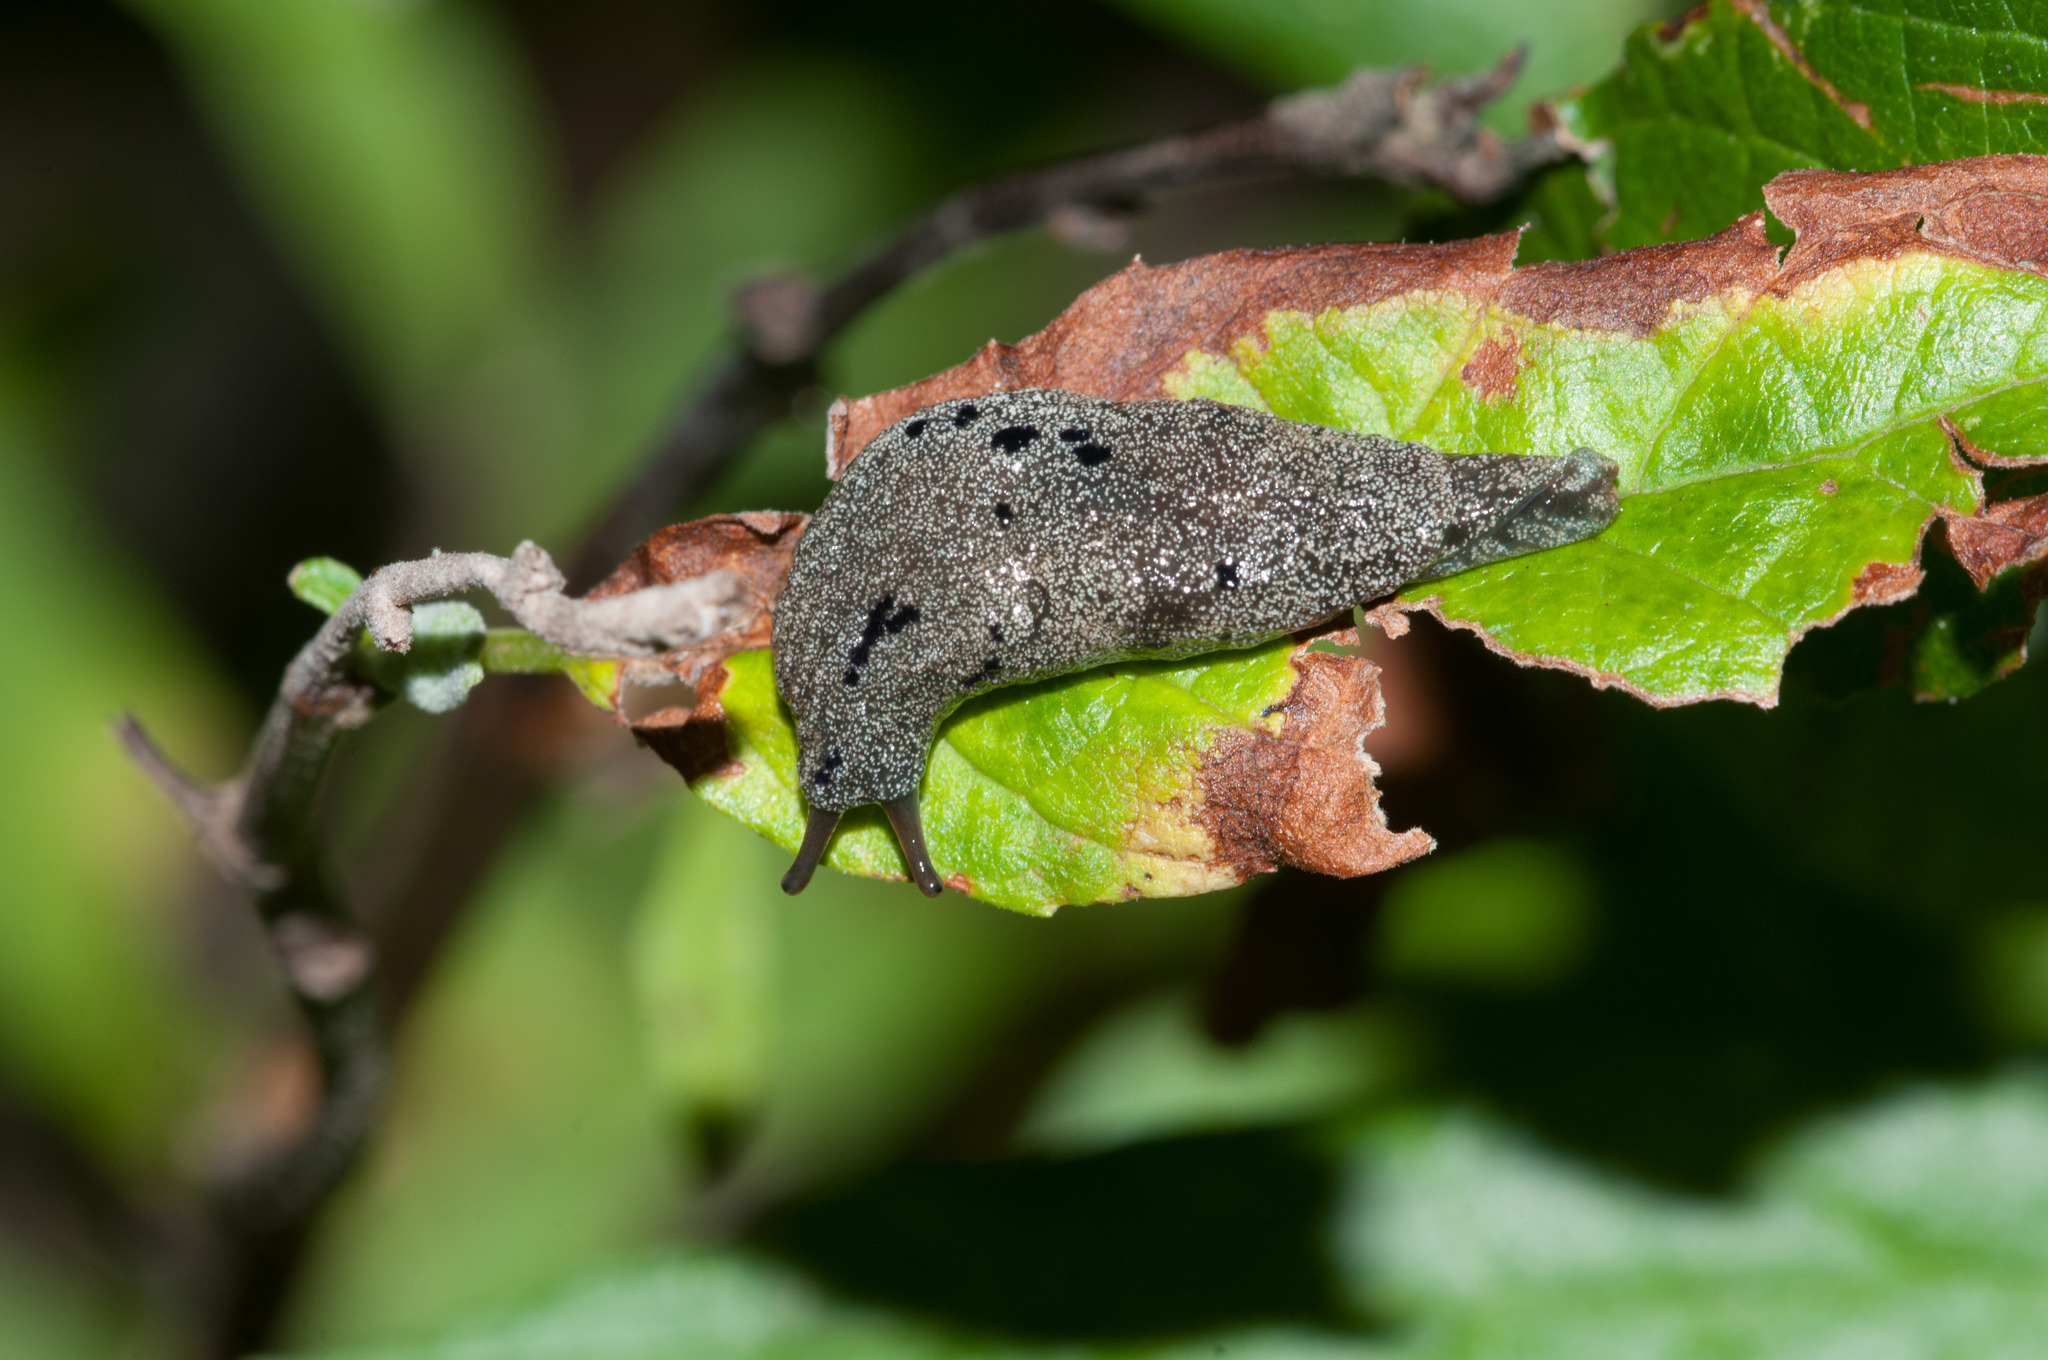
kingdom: Animalia
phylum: Mollusca
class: Gastropoda
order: Stylommatophora
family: Cystopeltidae
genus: Cystopelta
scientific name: Cystopelta purpurea
